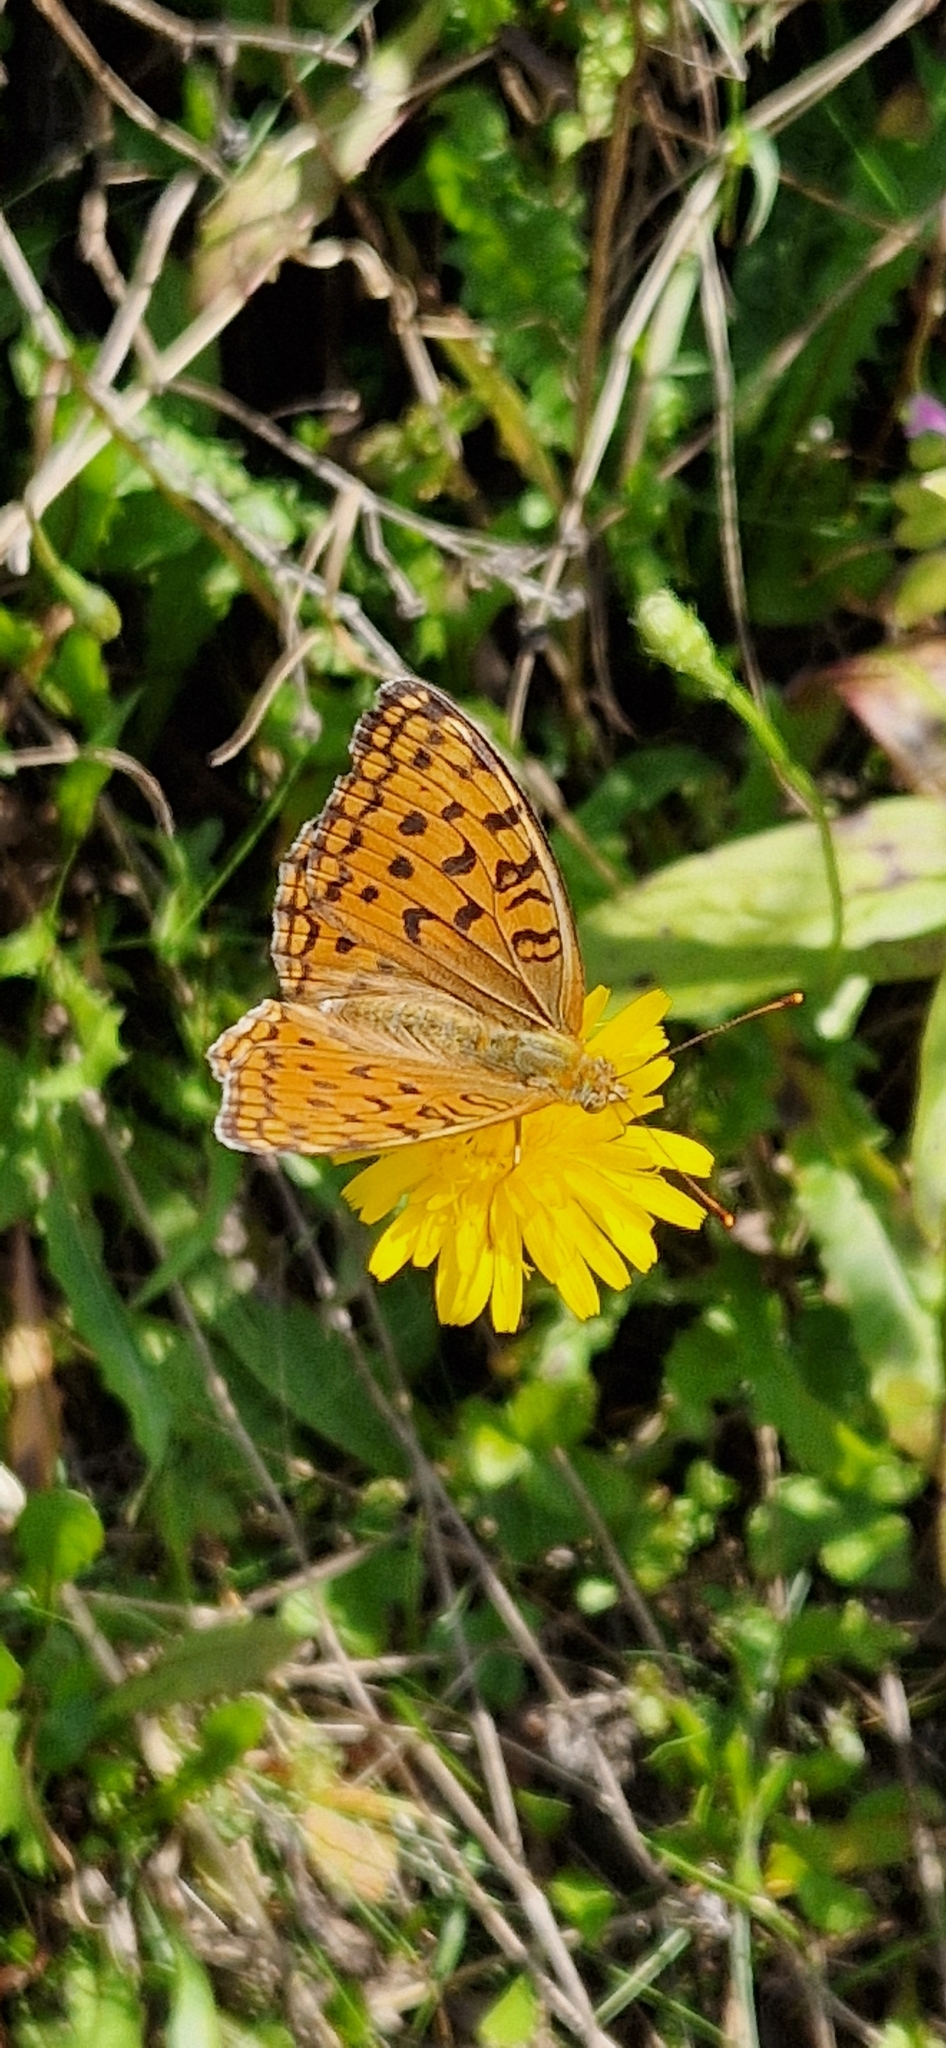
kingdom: Animalia
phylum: Arthropoda
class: Insecta
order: Lepidoptera
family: Nymphalidae
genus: Fabriciana
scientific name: Fabriciana adippe
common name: High brown fritillary
